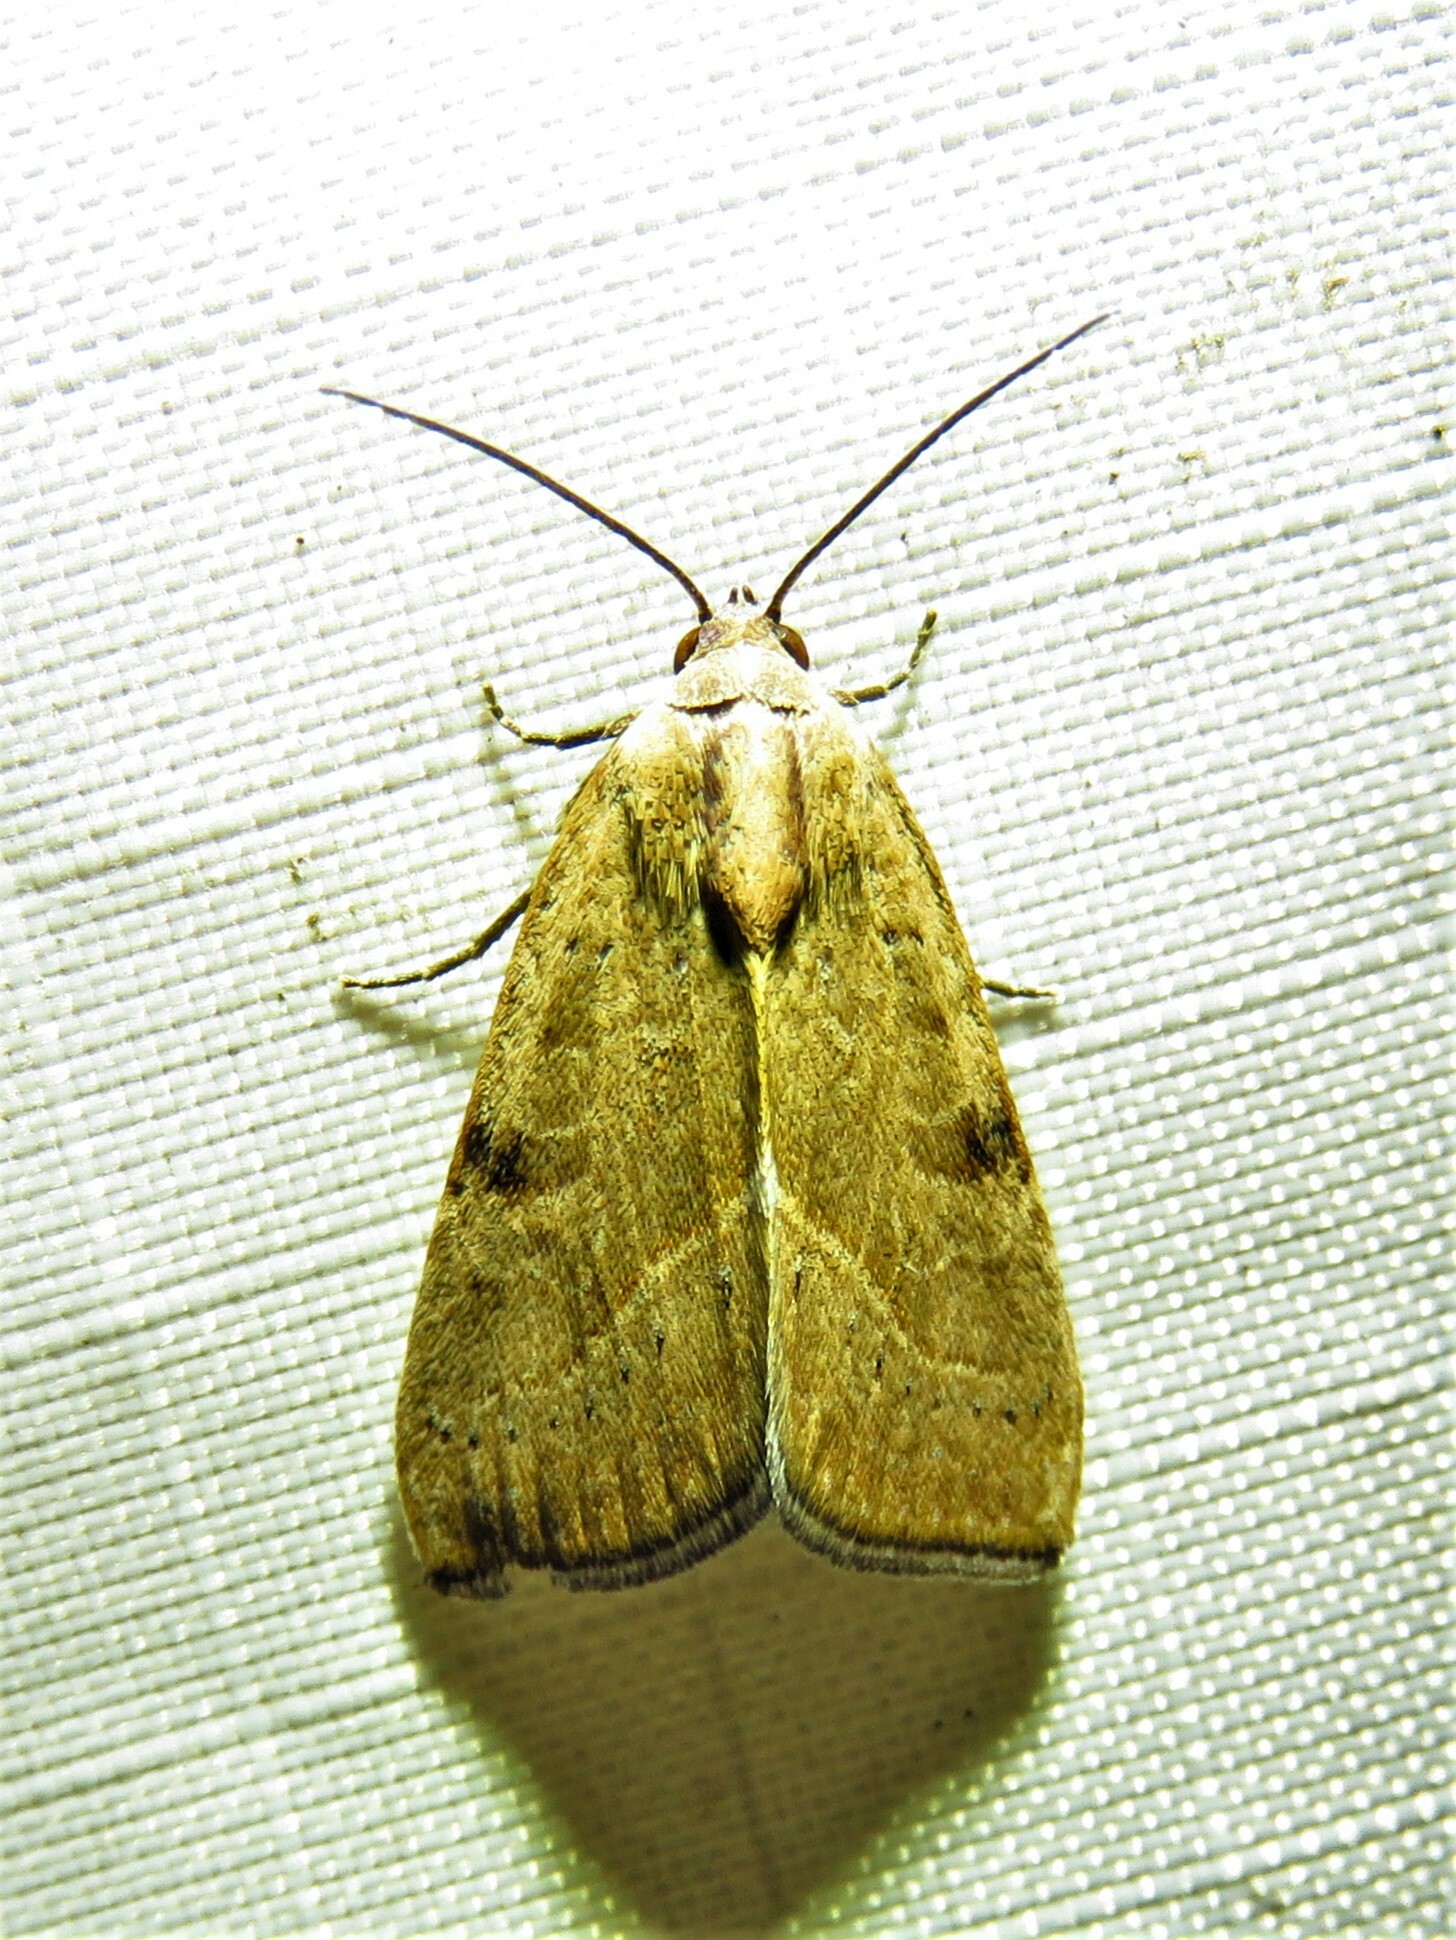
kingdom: Animalia
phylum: Arthropoda
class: Insecta
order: Lepidoptera
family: Noctuidae
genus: Galgula
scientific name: Galgula partita
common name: Wedgeling
